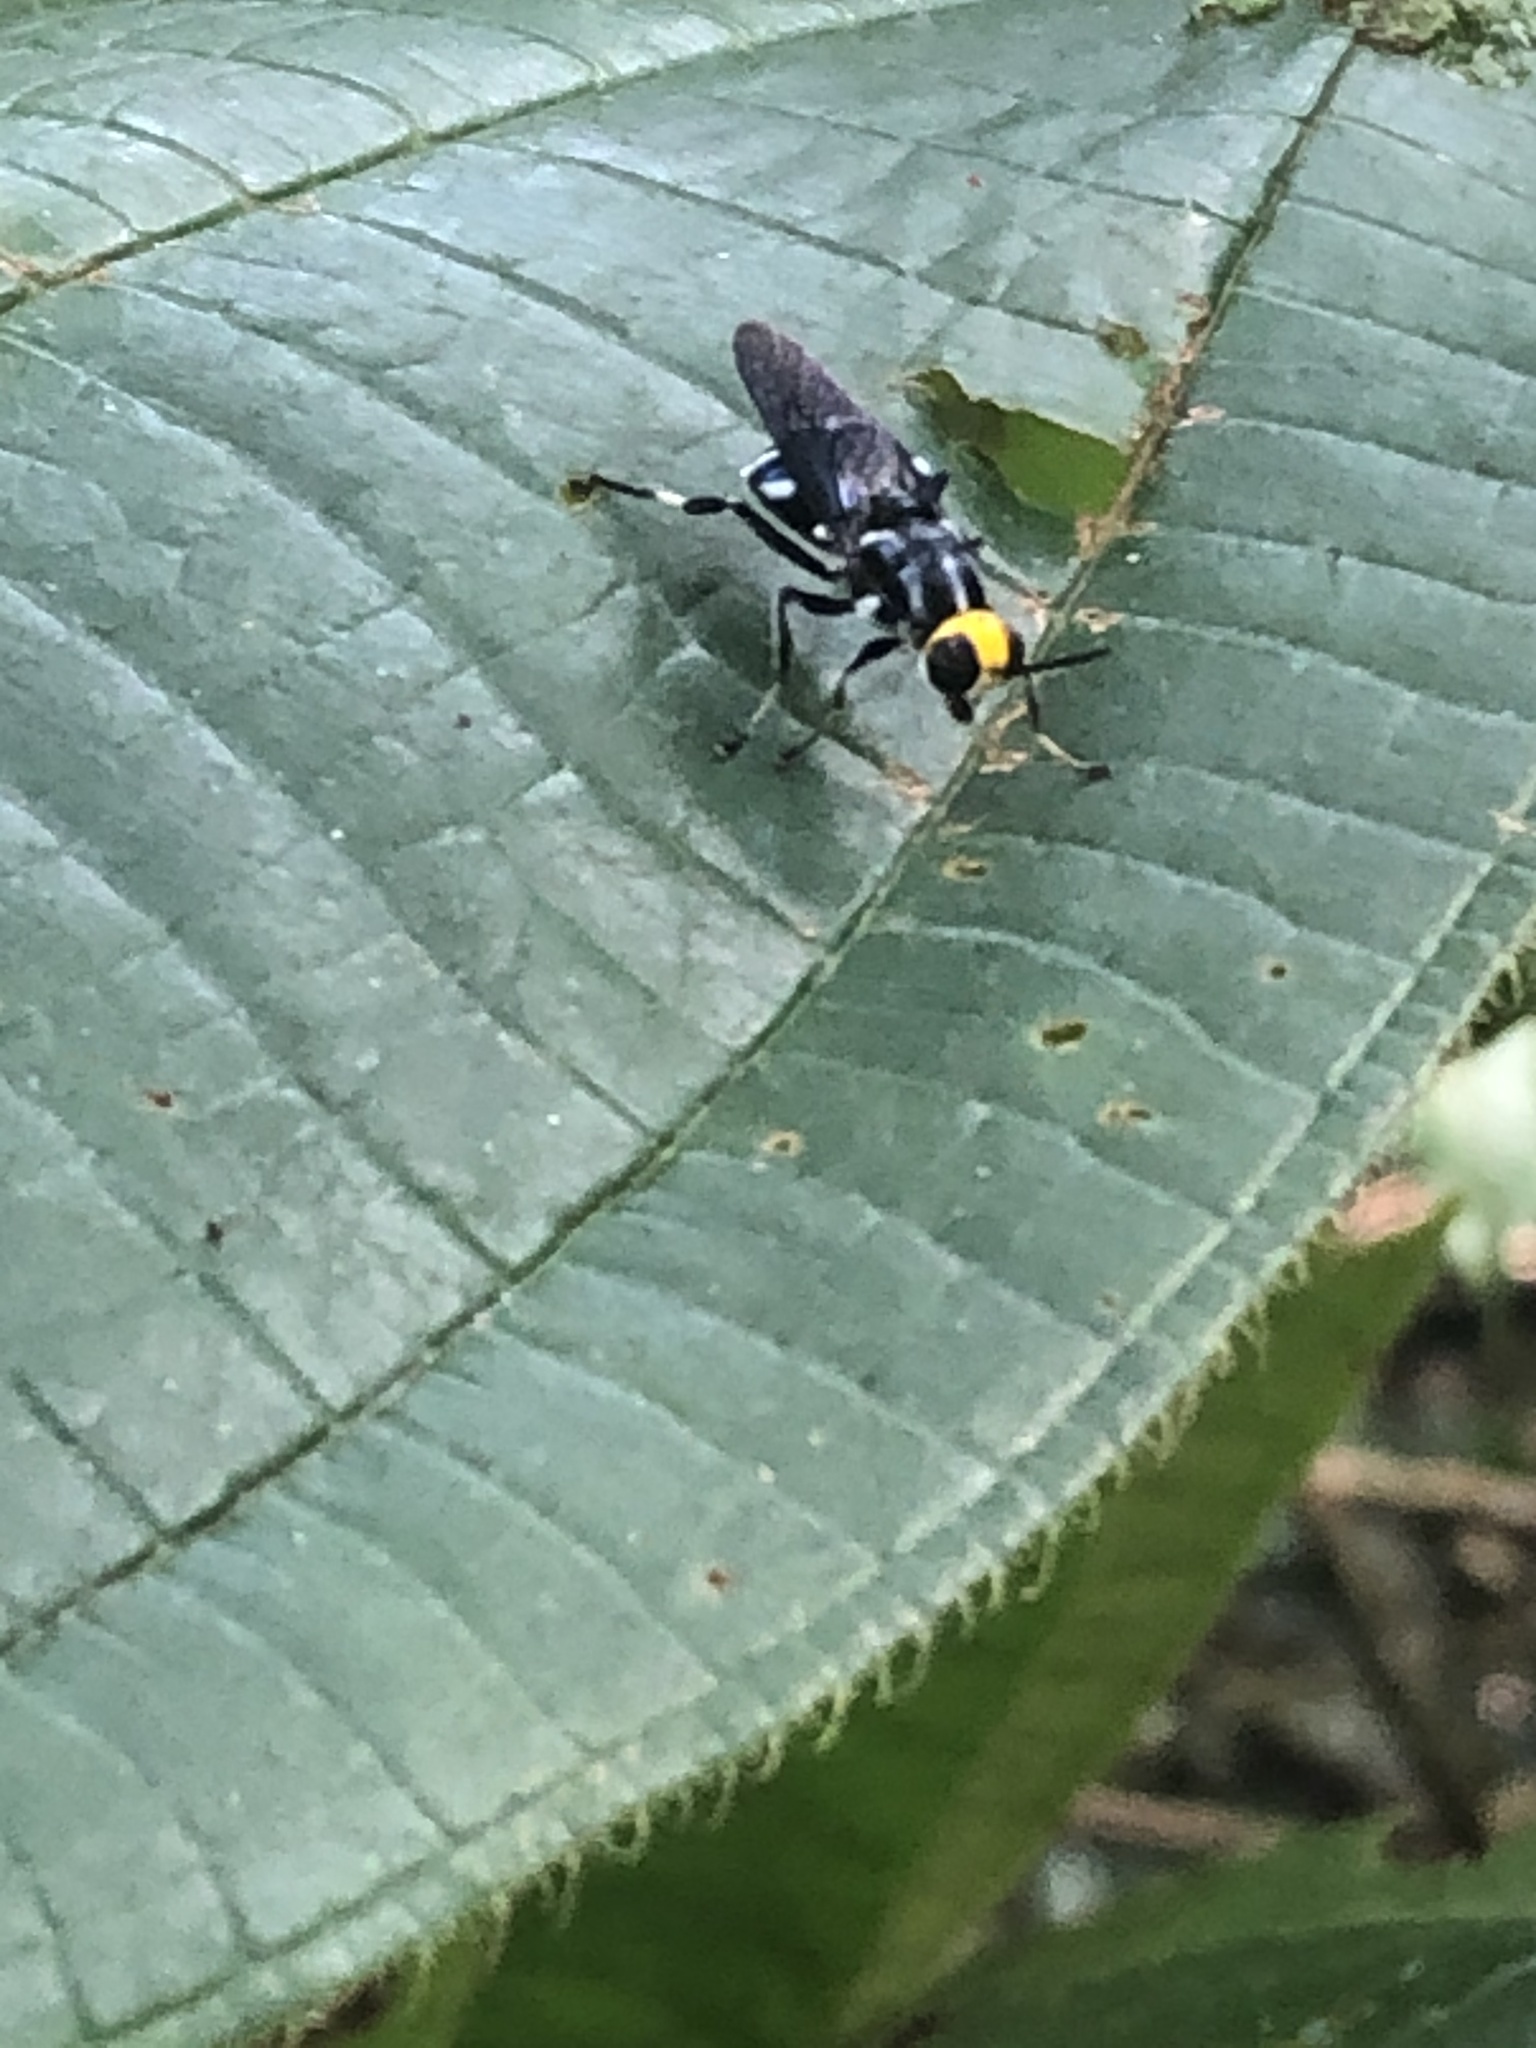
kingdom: Animalia
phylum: Arthropoda
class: Insecta
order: Diptera
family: Stratiomyidae
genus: Cyphomyia
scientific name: Cyphomyia wiedemanni
